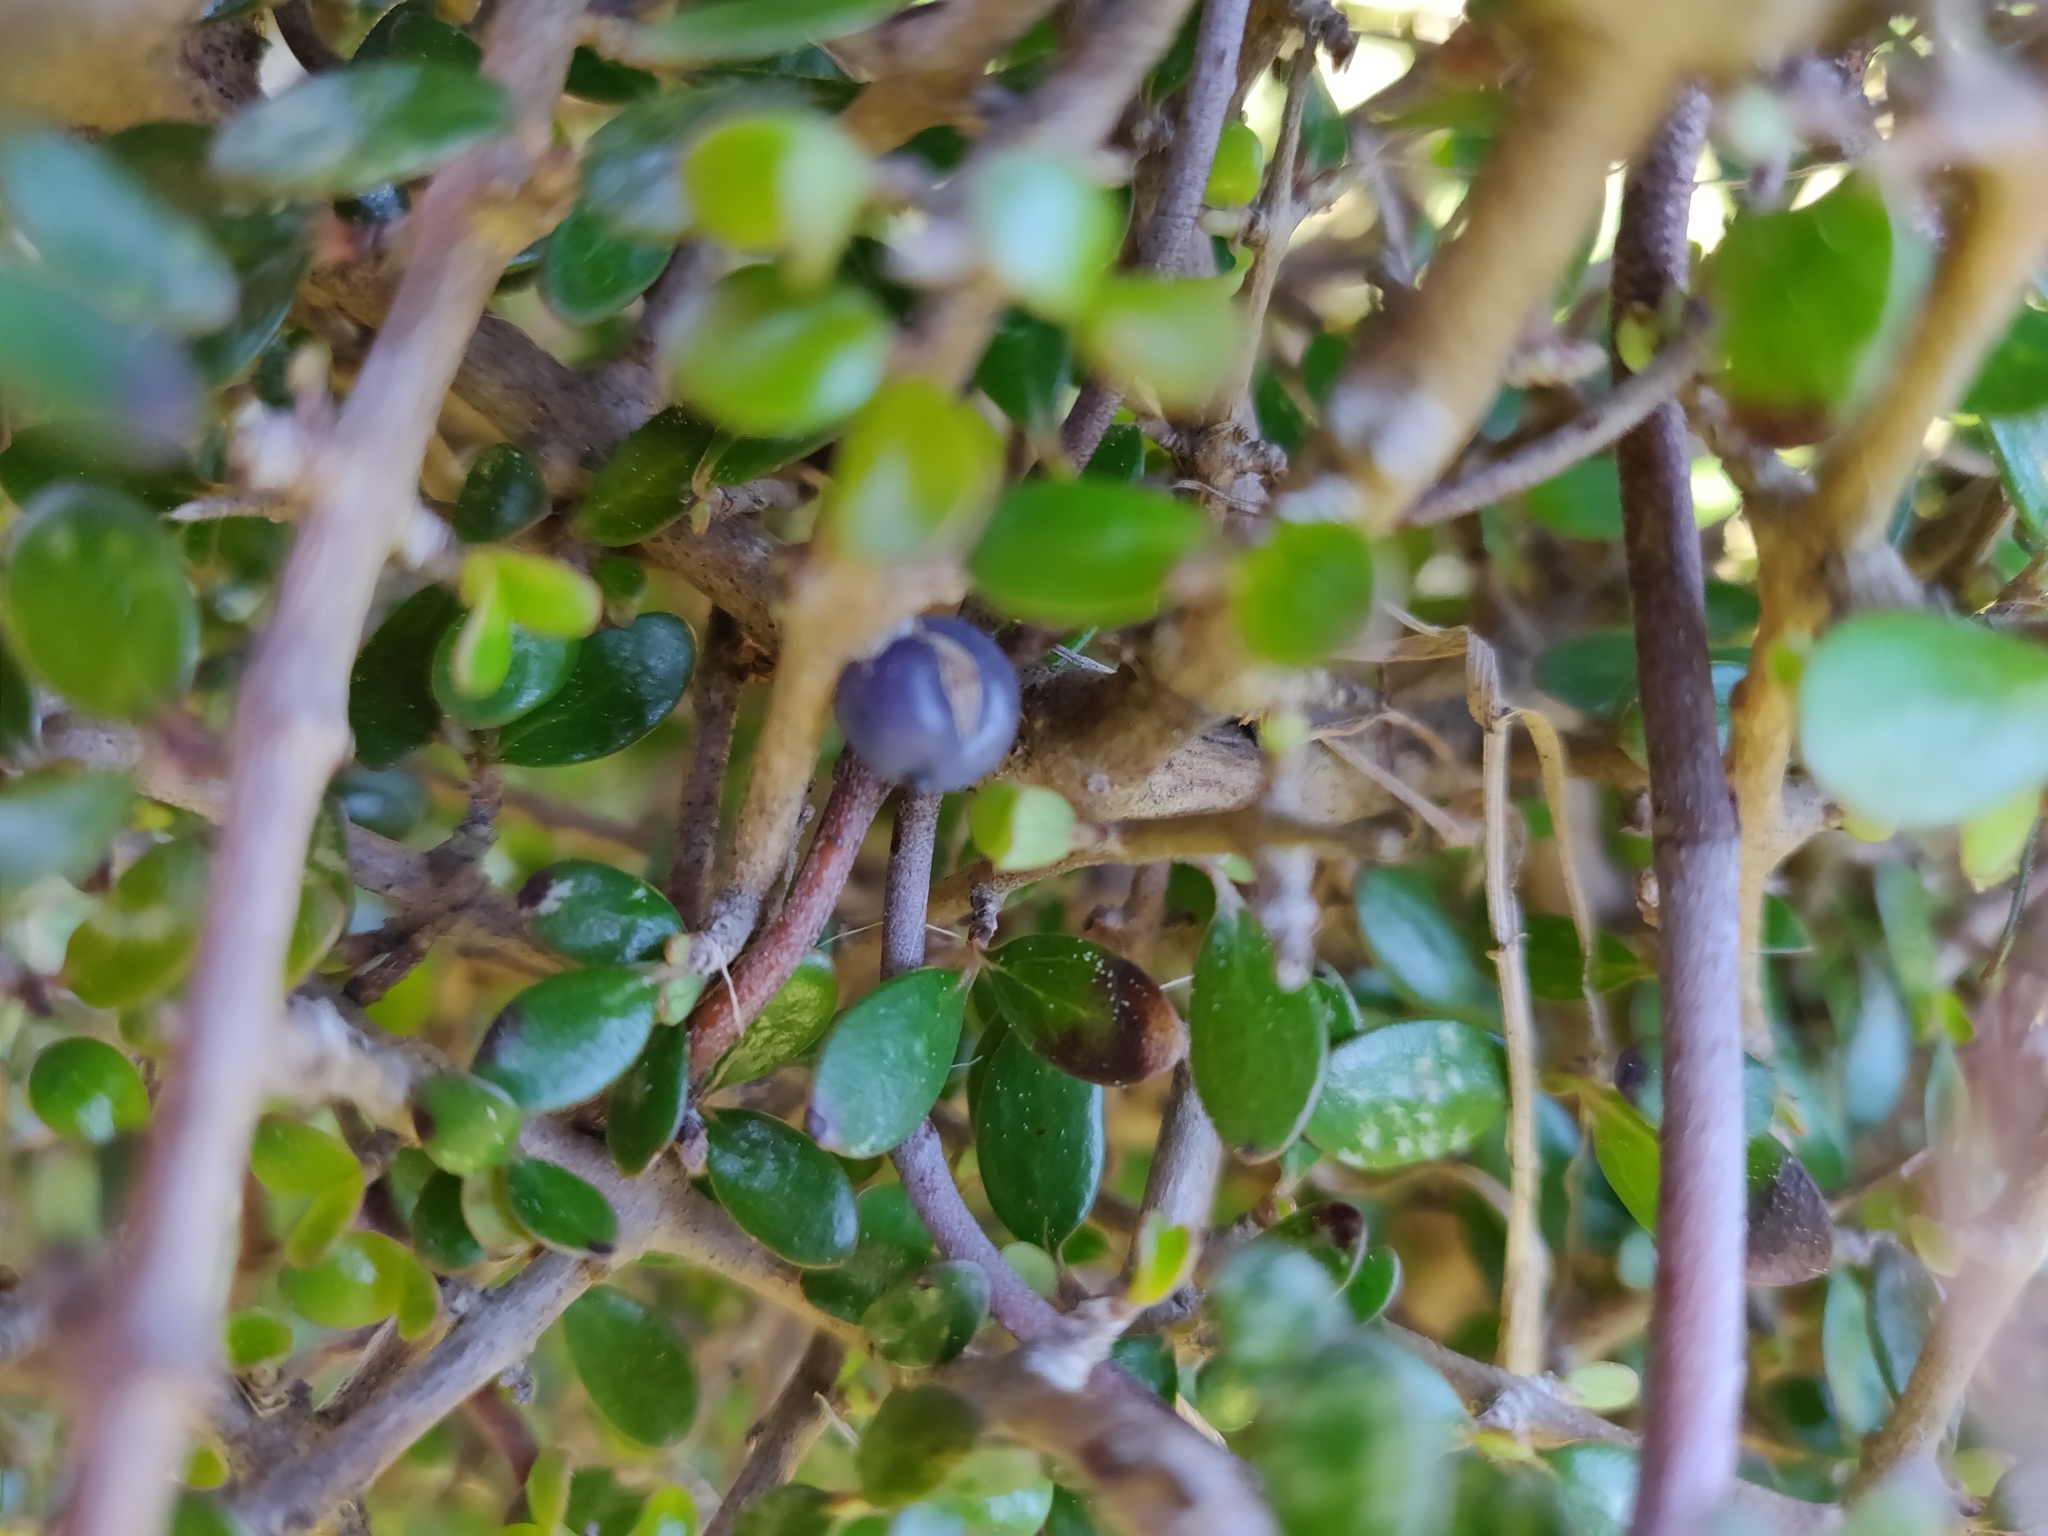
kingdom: Plantae
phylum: Tracheophyta
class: Magnoliopsida
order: Gentianales
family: Rubiaceae
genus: Coprosma
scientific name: Coprosma propinqua
